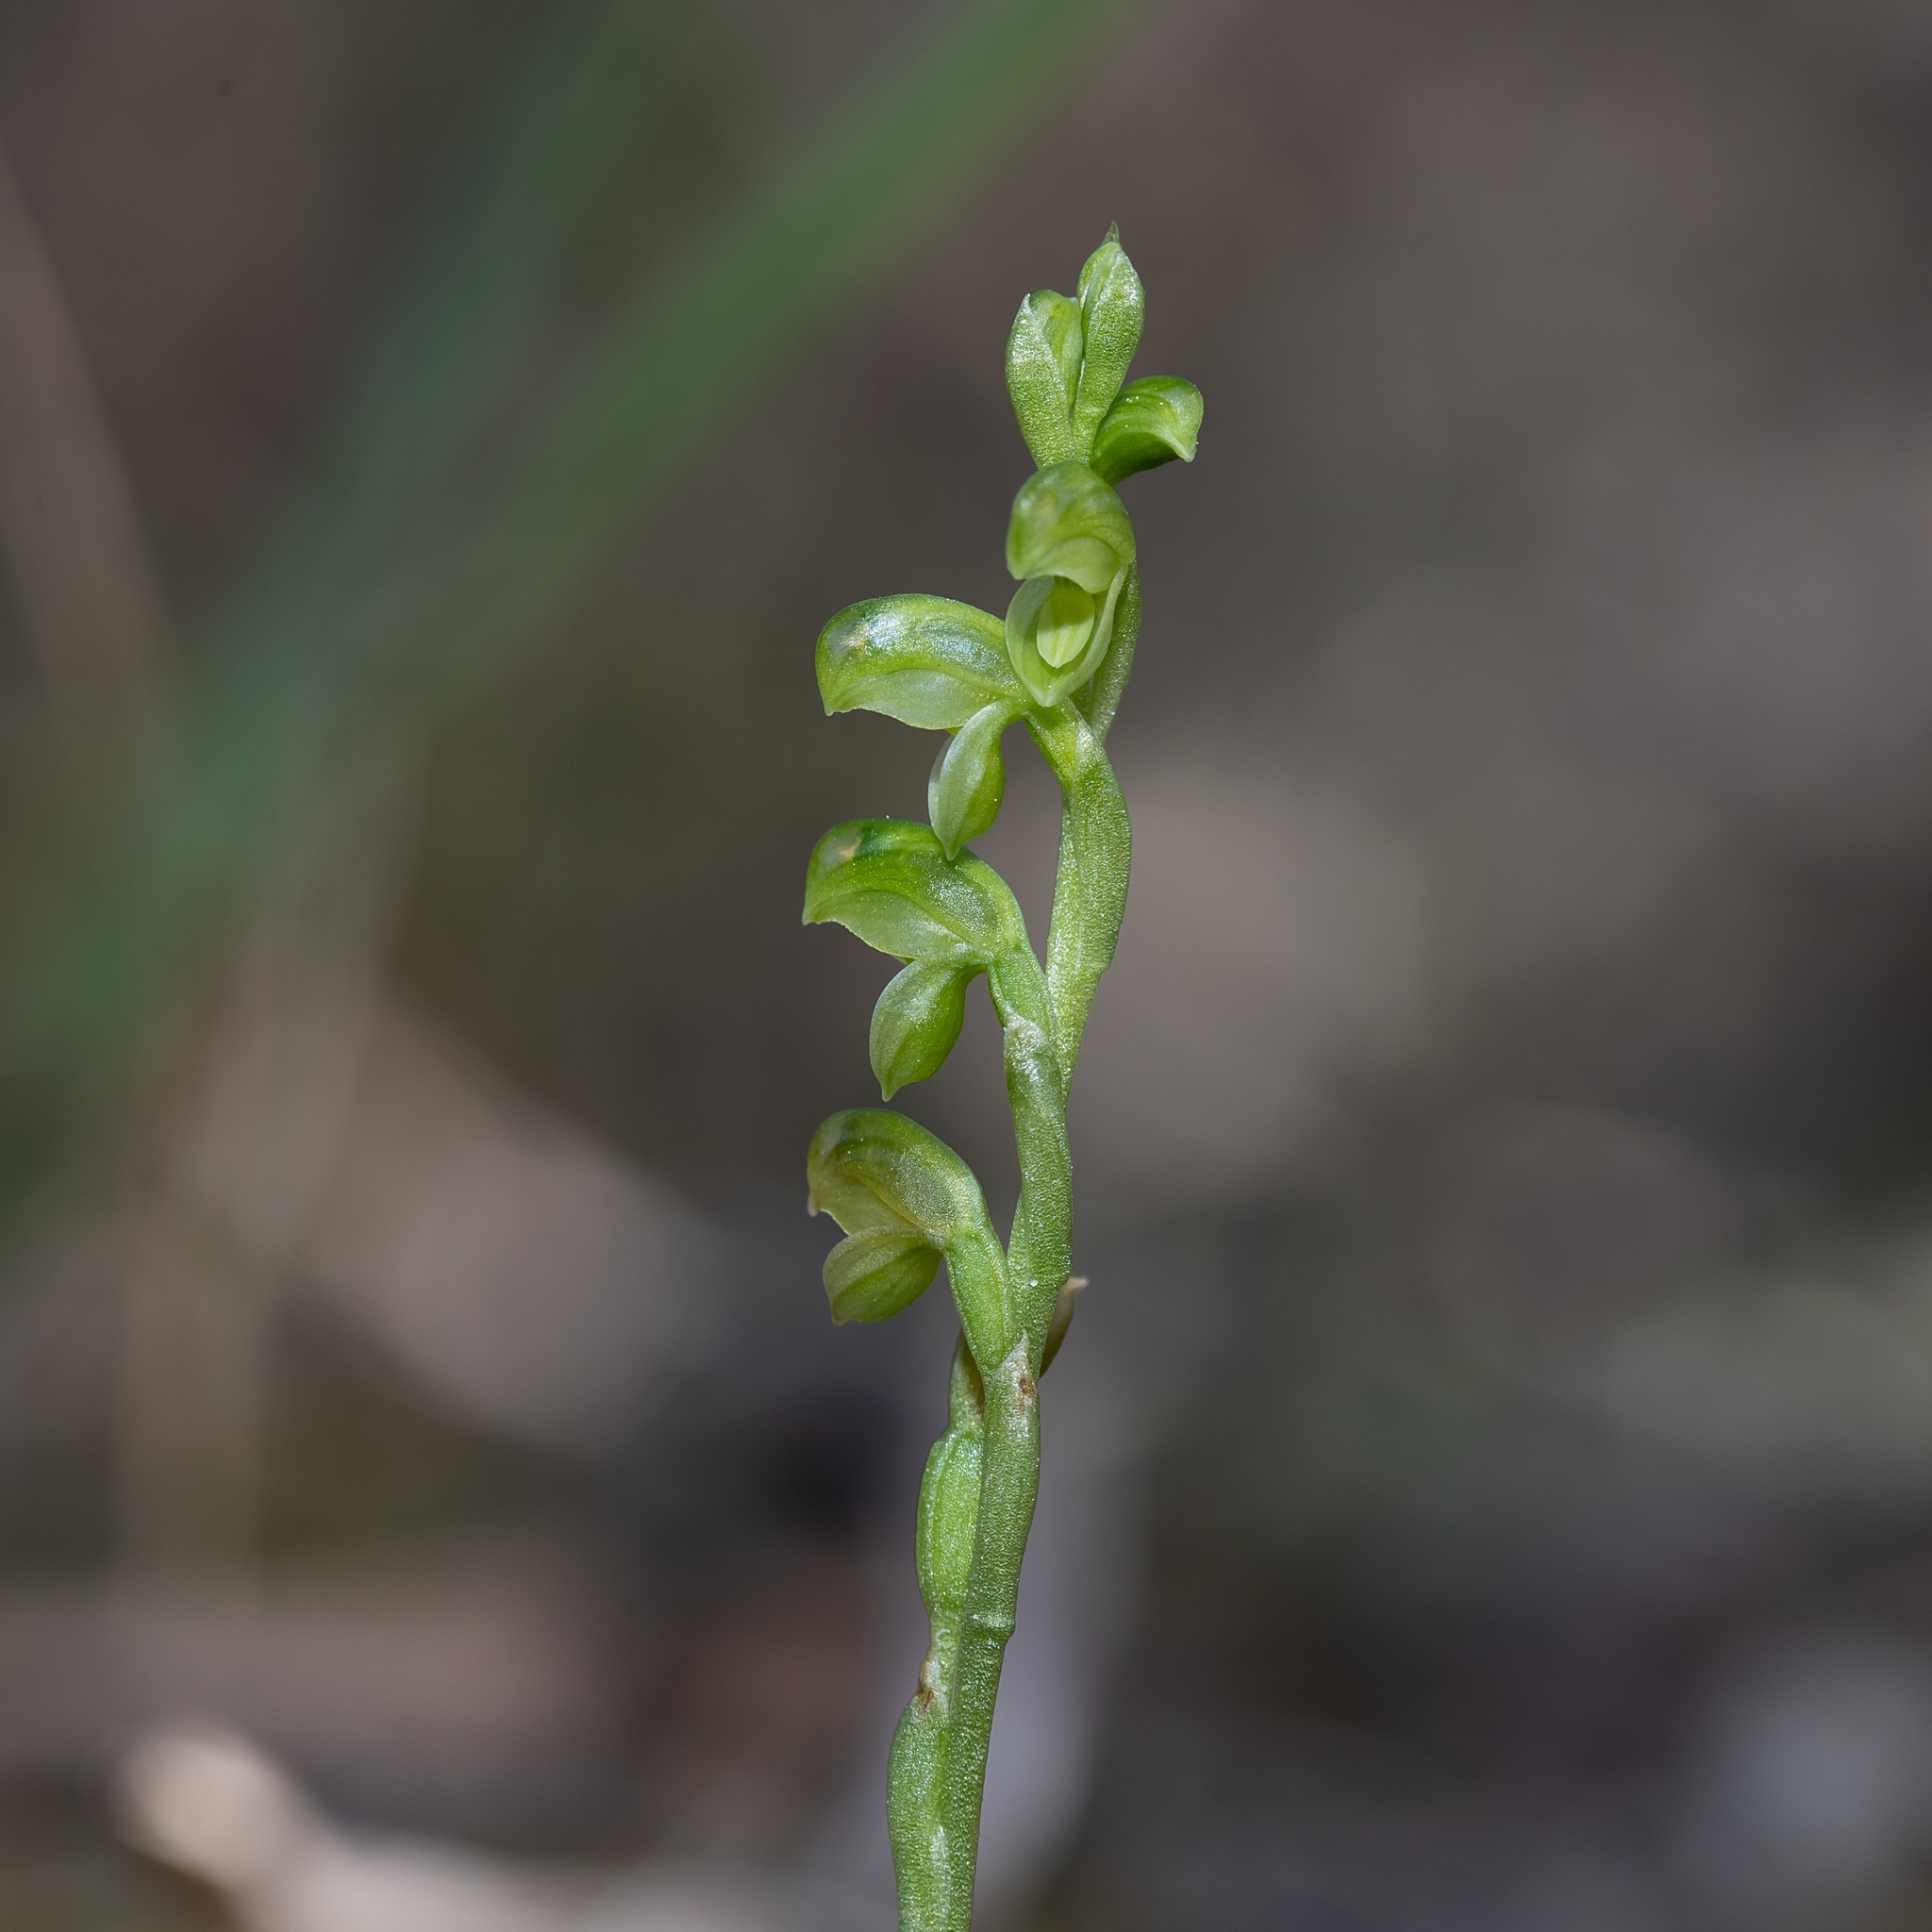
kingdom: Plantae
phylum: Tracheophyta
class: Liliopsida
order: Asparagales
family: Orchidaceae
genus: Pterostylis
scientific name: Pterostylis mutica
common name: Midget greenhood
